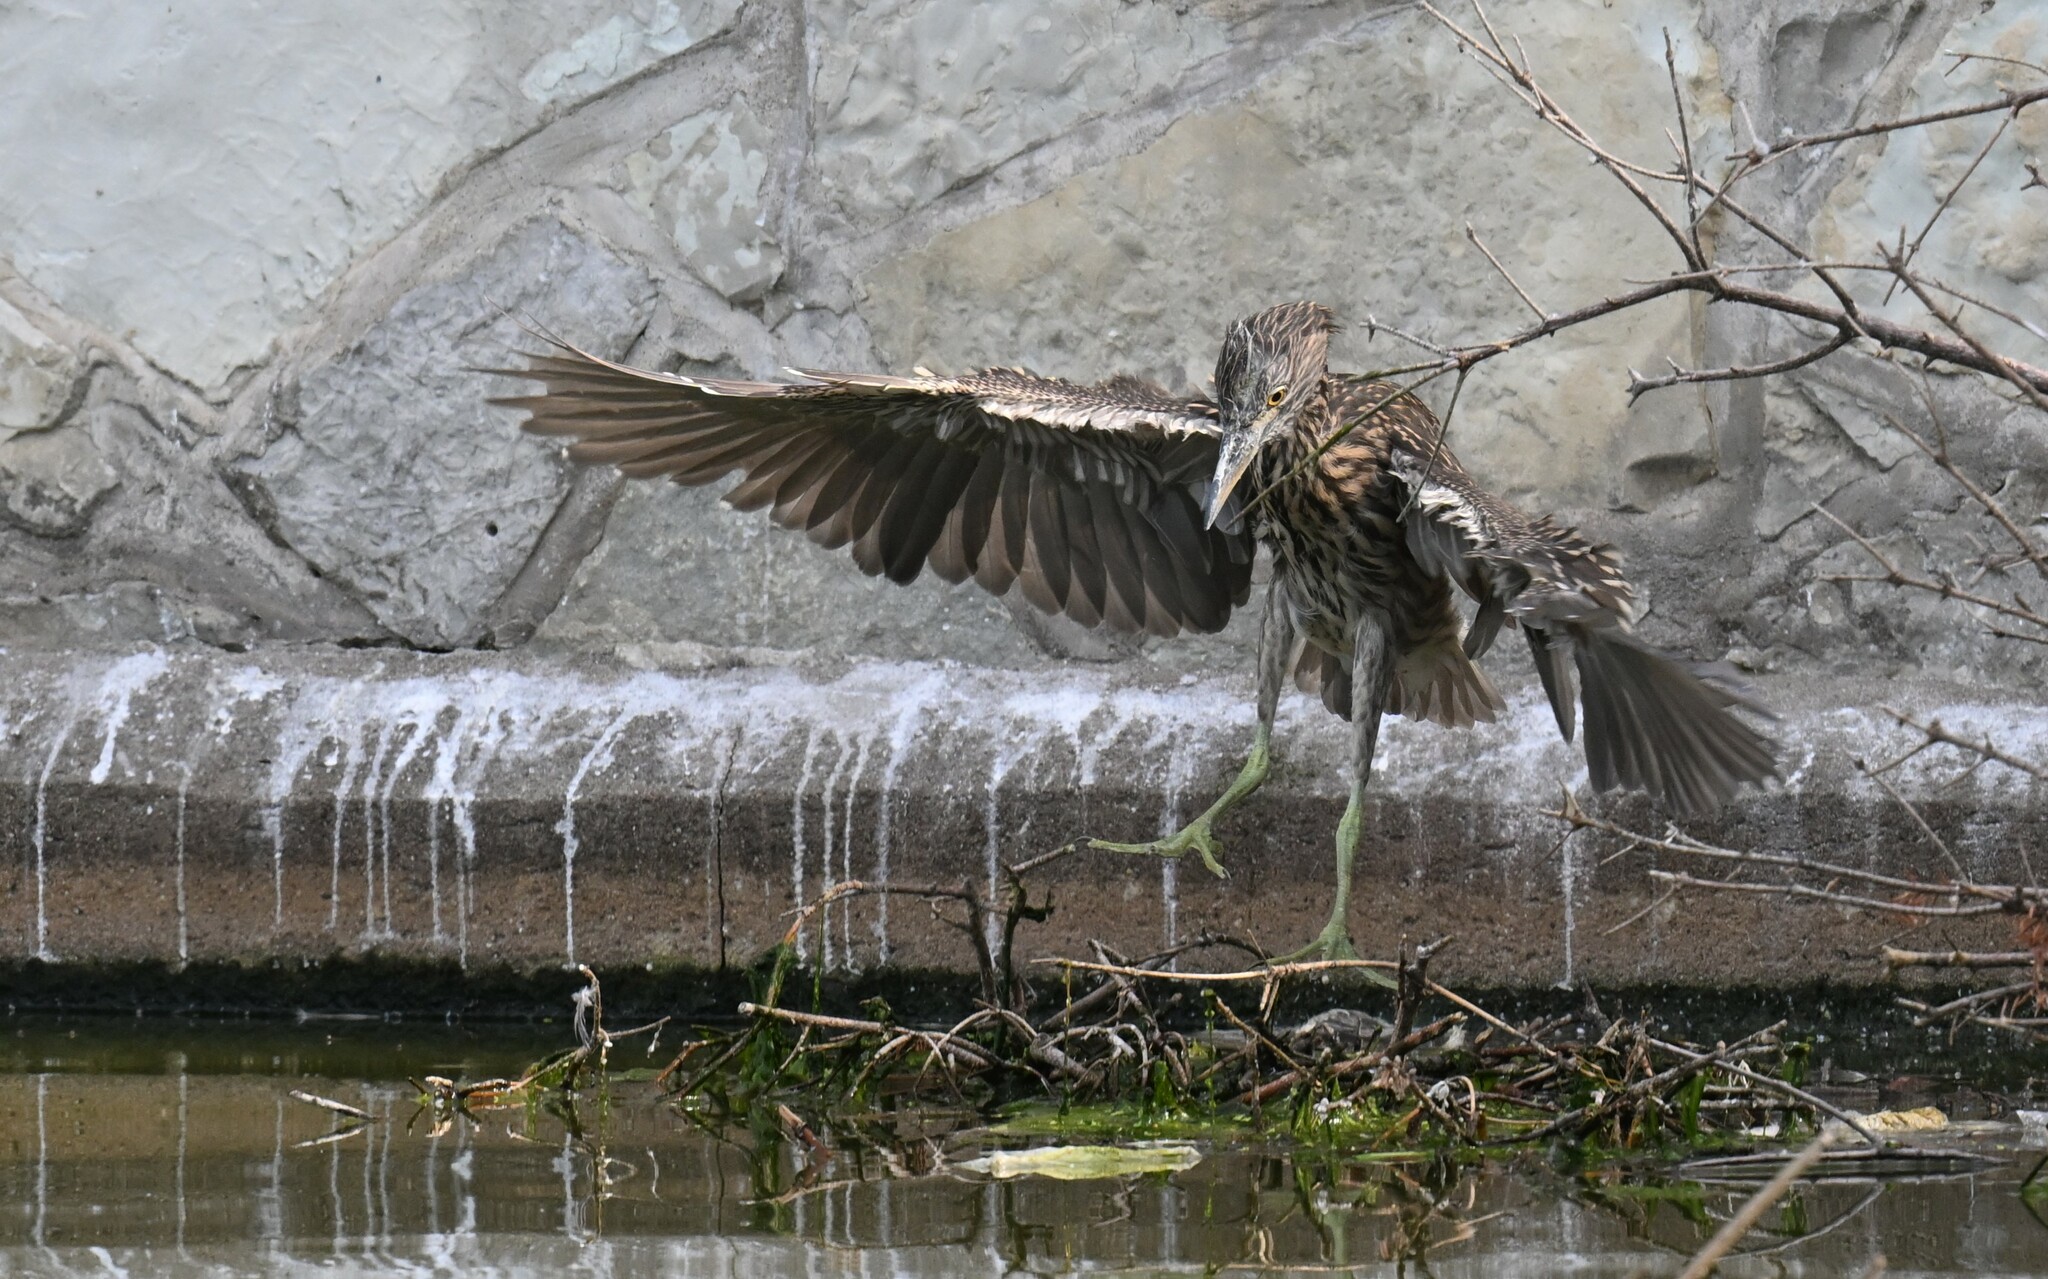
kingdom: Animalia
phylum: Chordata
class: Aves
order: Pelecaniformes
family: Ardeidae
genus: Nycticorax
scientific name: Nycticorax nycticorax
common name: Black-crowned night heron
